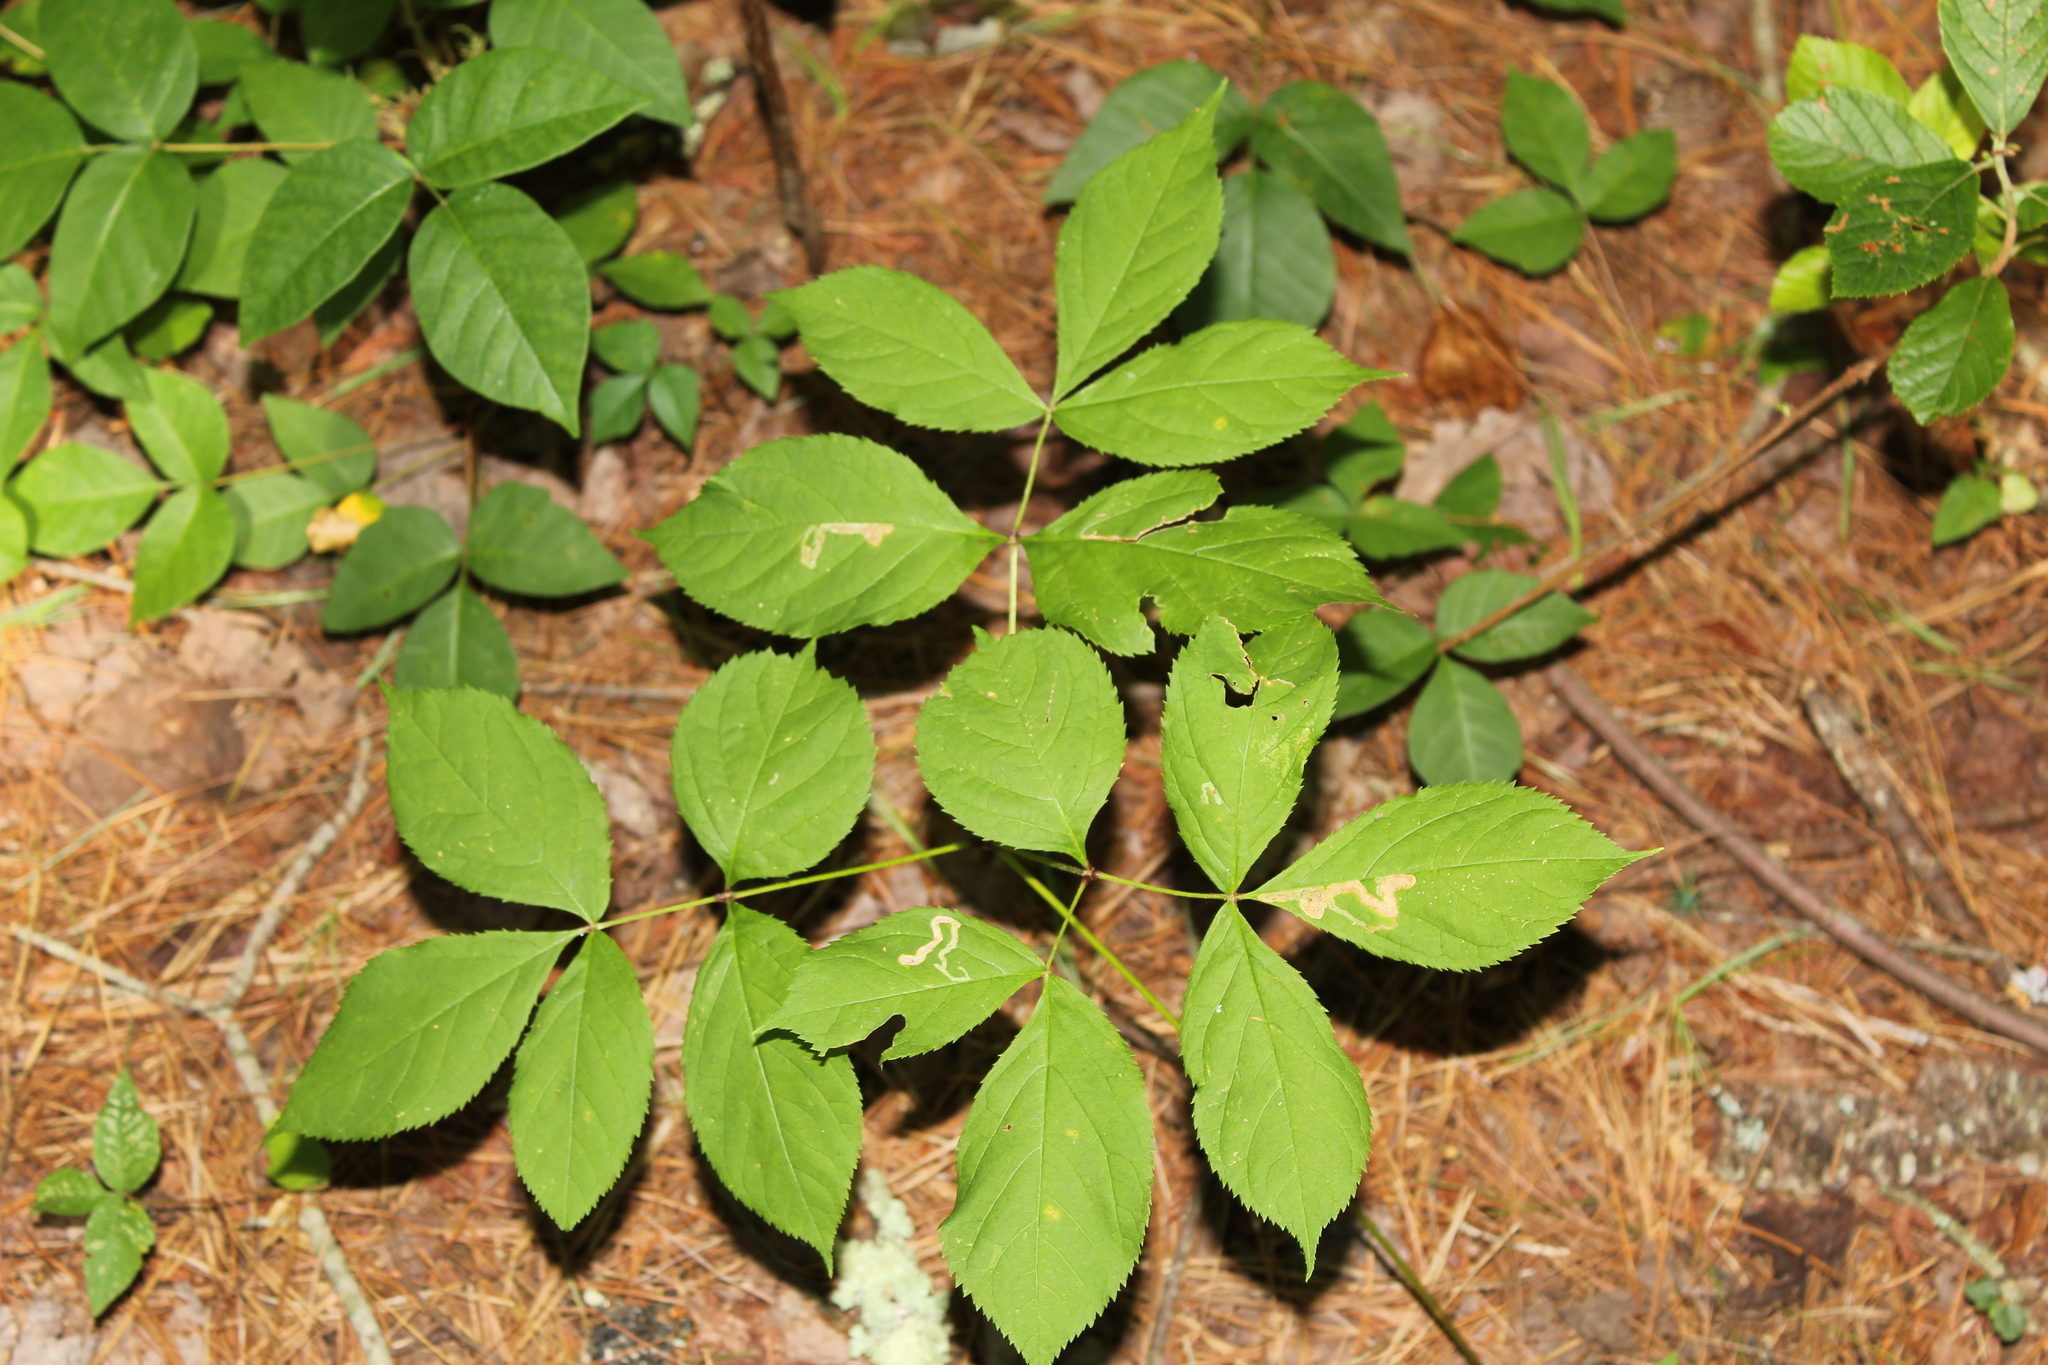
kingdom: Plantae
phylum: Tracheophyta
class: Magnoliopsida
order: Apiales
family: Araliaceae
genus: Aralia
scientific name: Aralia nudicaulis
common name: Wild sarsaparilla
